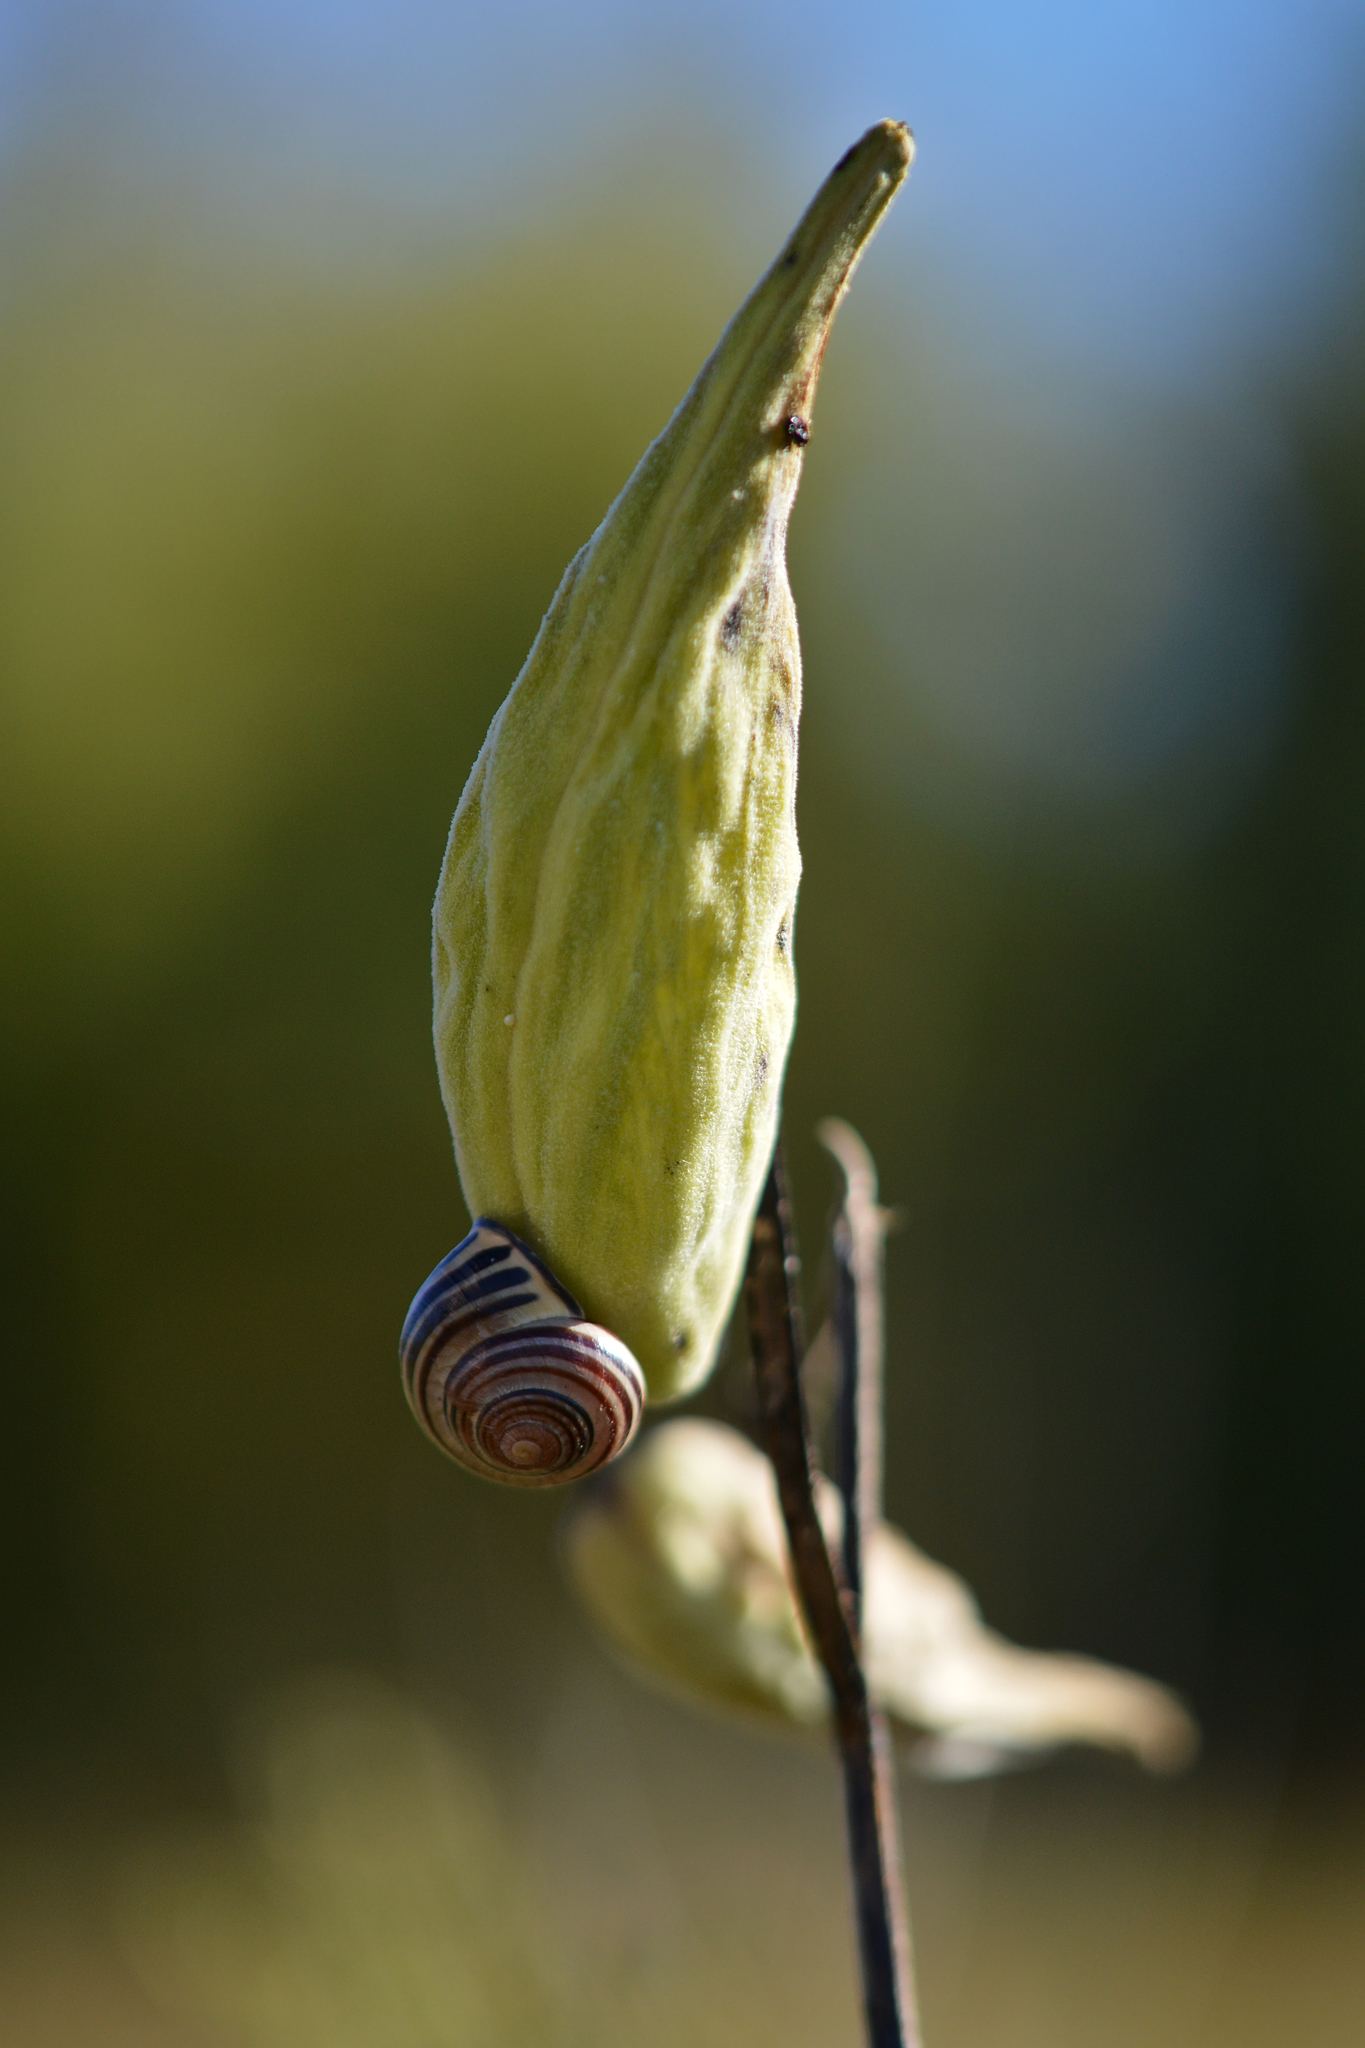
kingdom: Animalia
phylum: Mollusca
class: Gastropoda
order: Stylommatophora
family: Helicidae
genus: Cepaea
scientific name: Cepaea nemoralis
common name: Grovesnail
